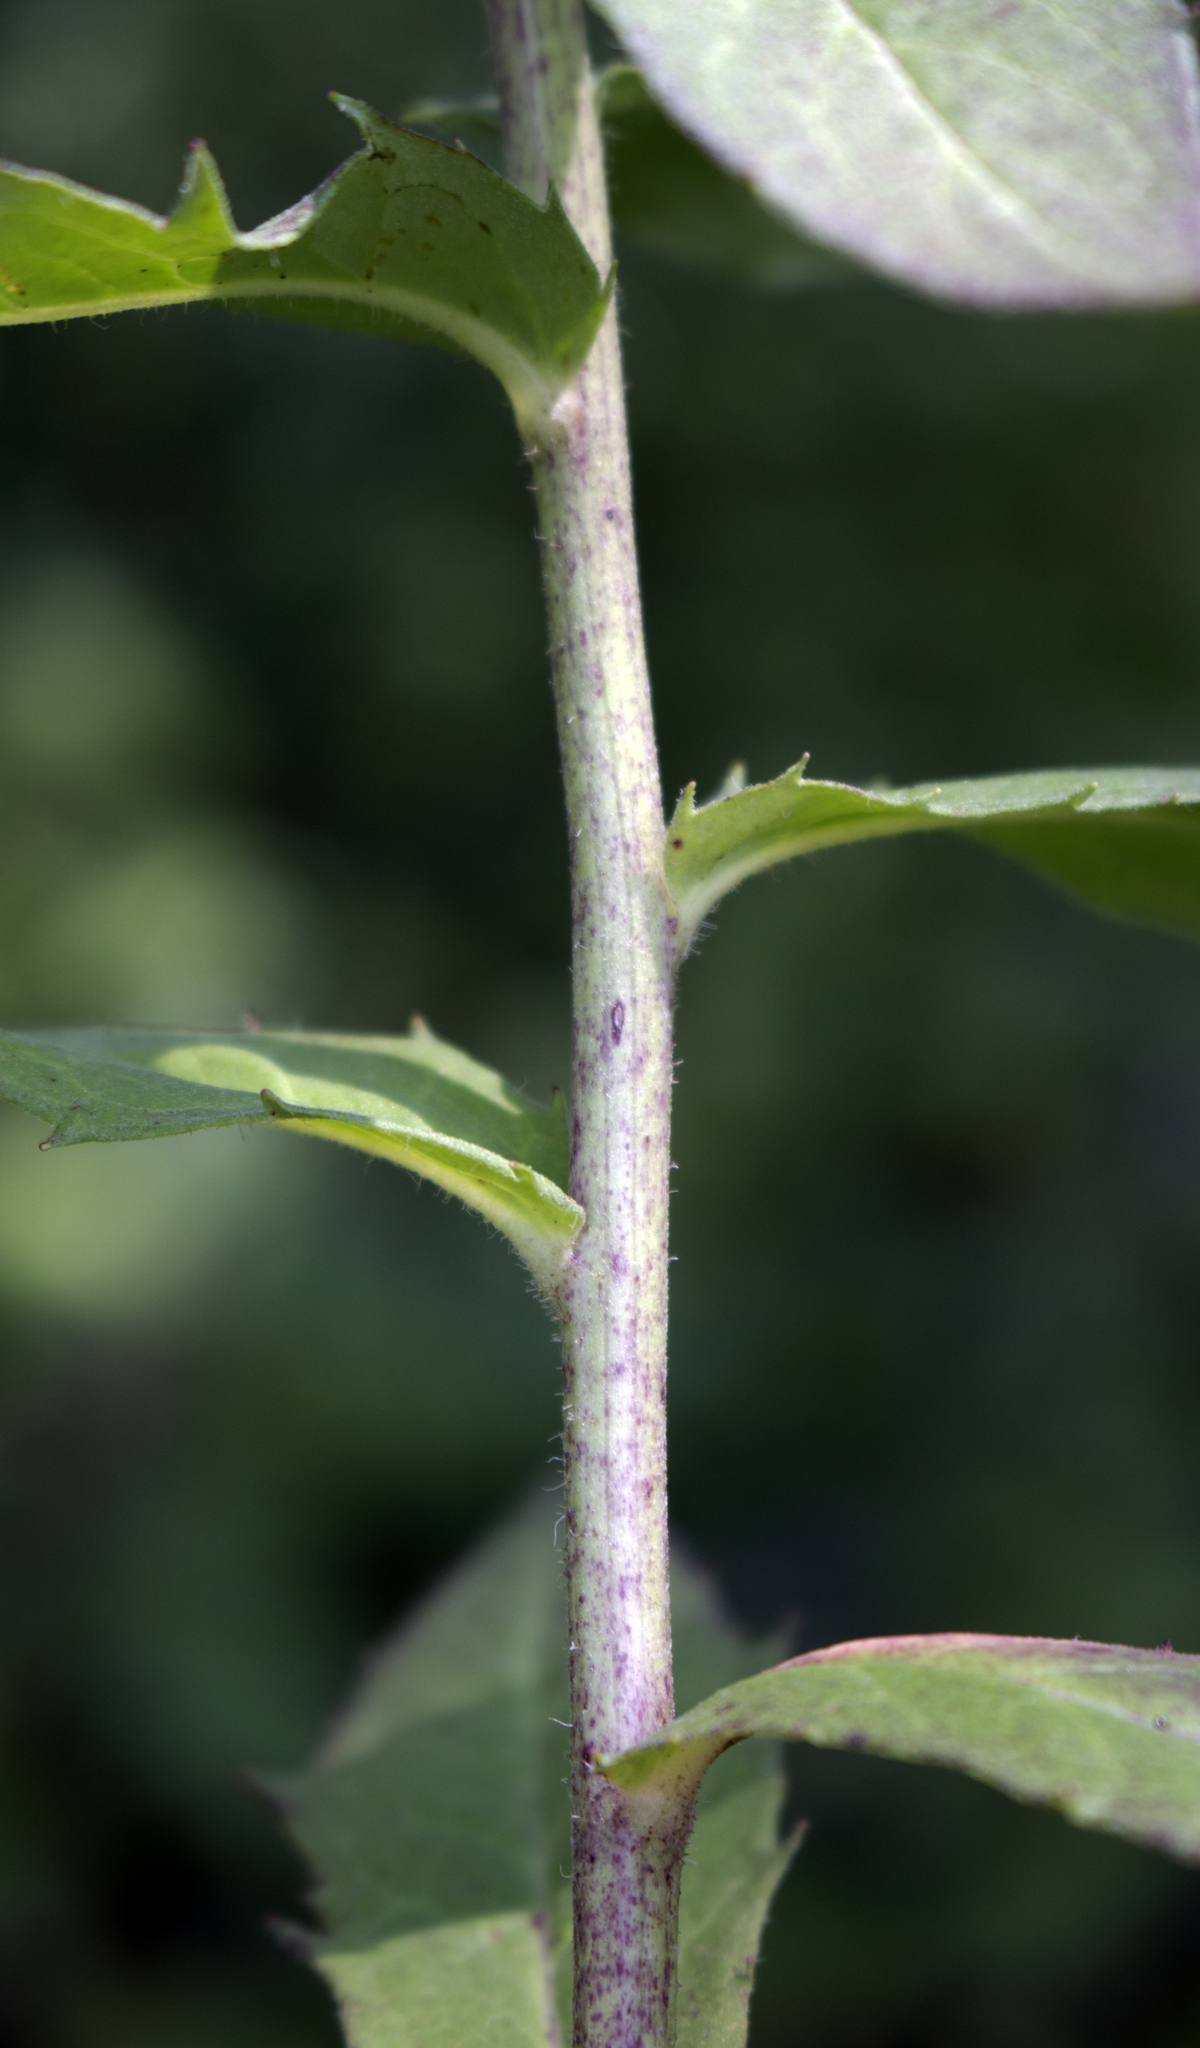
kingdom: Plantae
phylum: Tracheophyta
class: Magnoliopsida
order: Asterales
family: Asteraceae
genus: Hieracium
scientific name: Hieracium umbellatum
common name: Northern hawkweed
